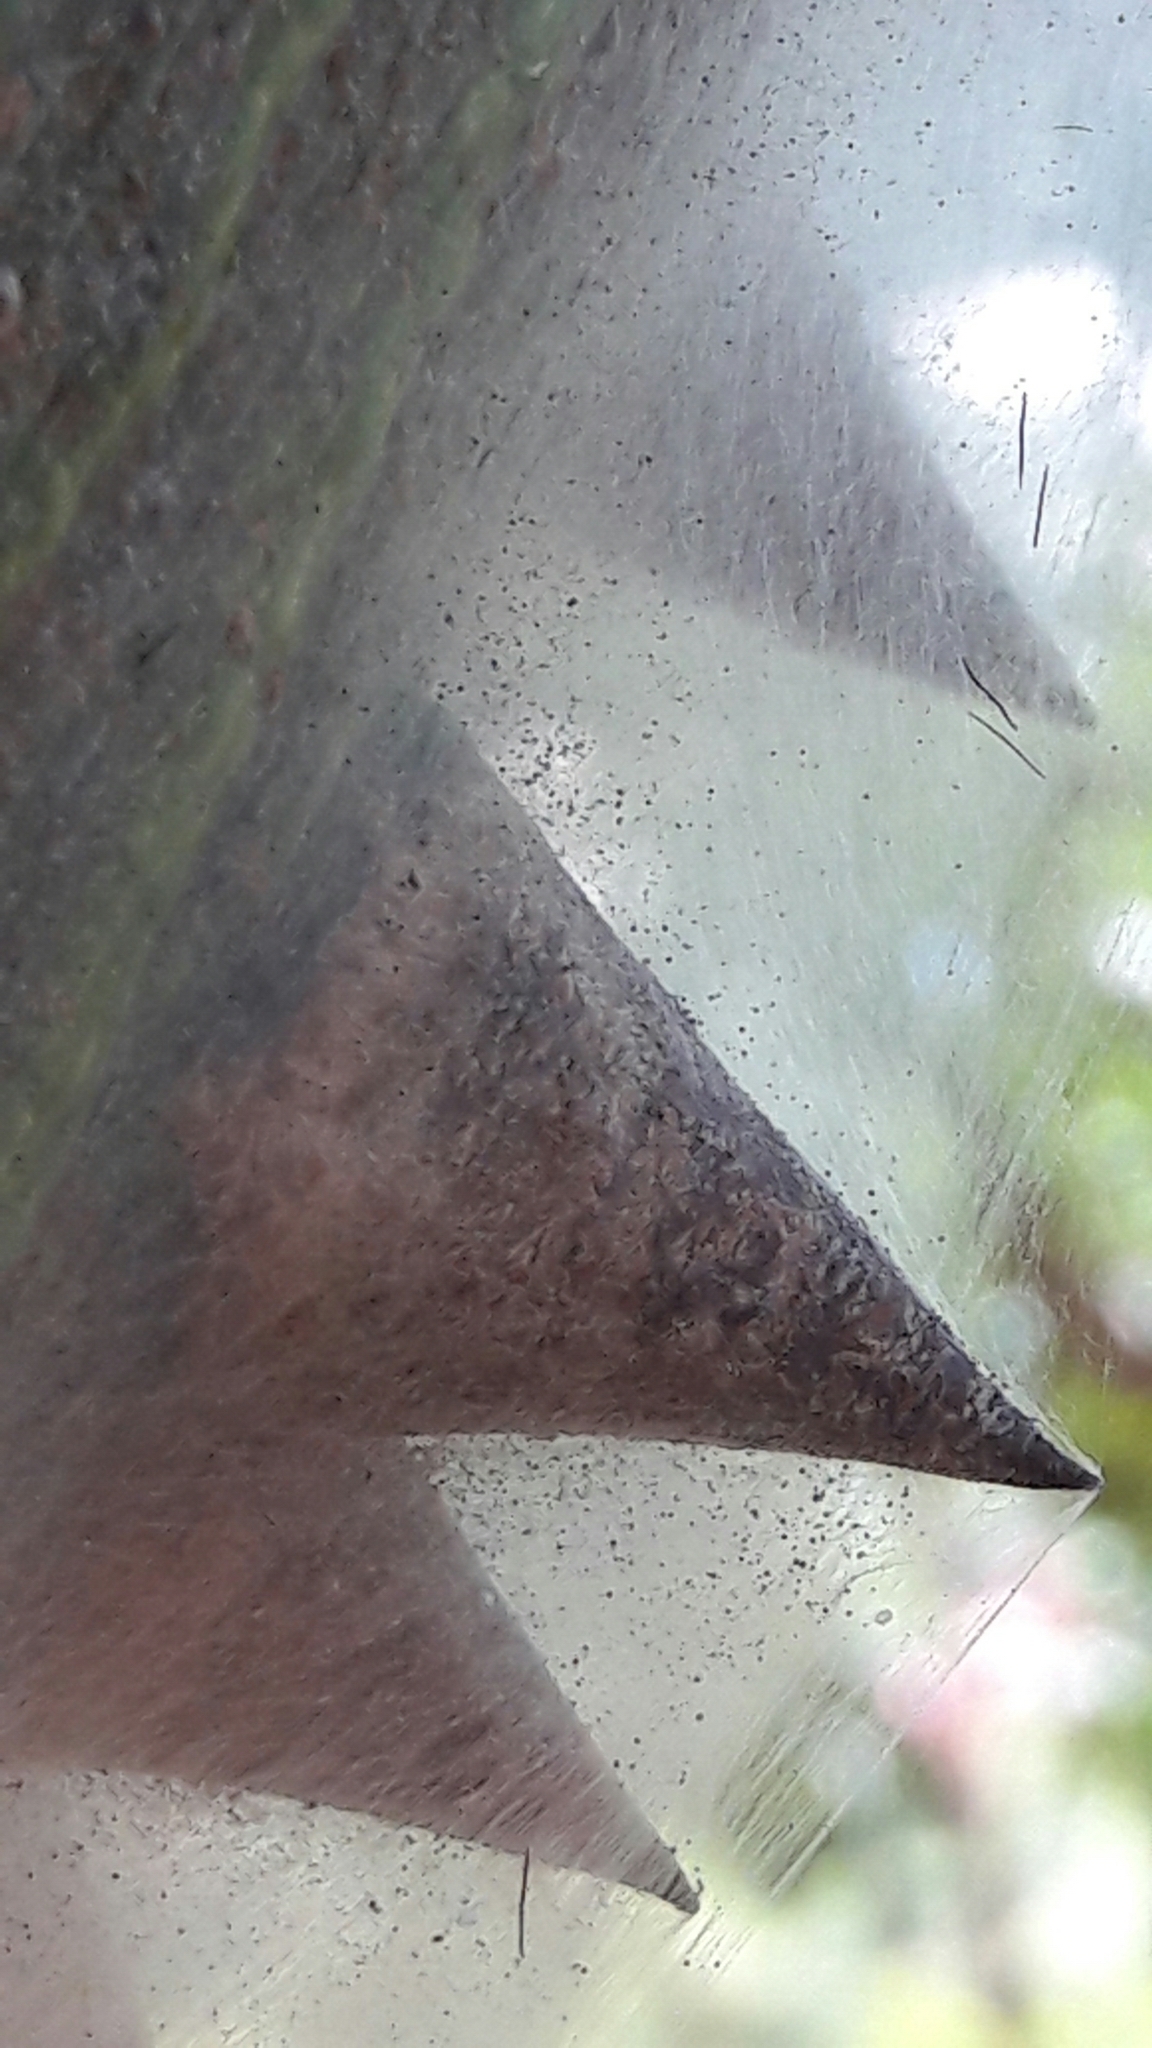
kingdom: Animalia
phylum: Arthropoda
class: Arachnida
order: Trombidiformes
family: Tetranychidae
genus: Tetranychus
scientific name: Tetranychus evansi
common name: Mite
